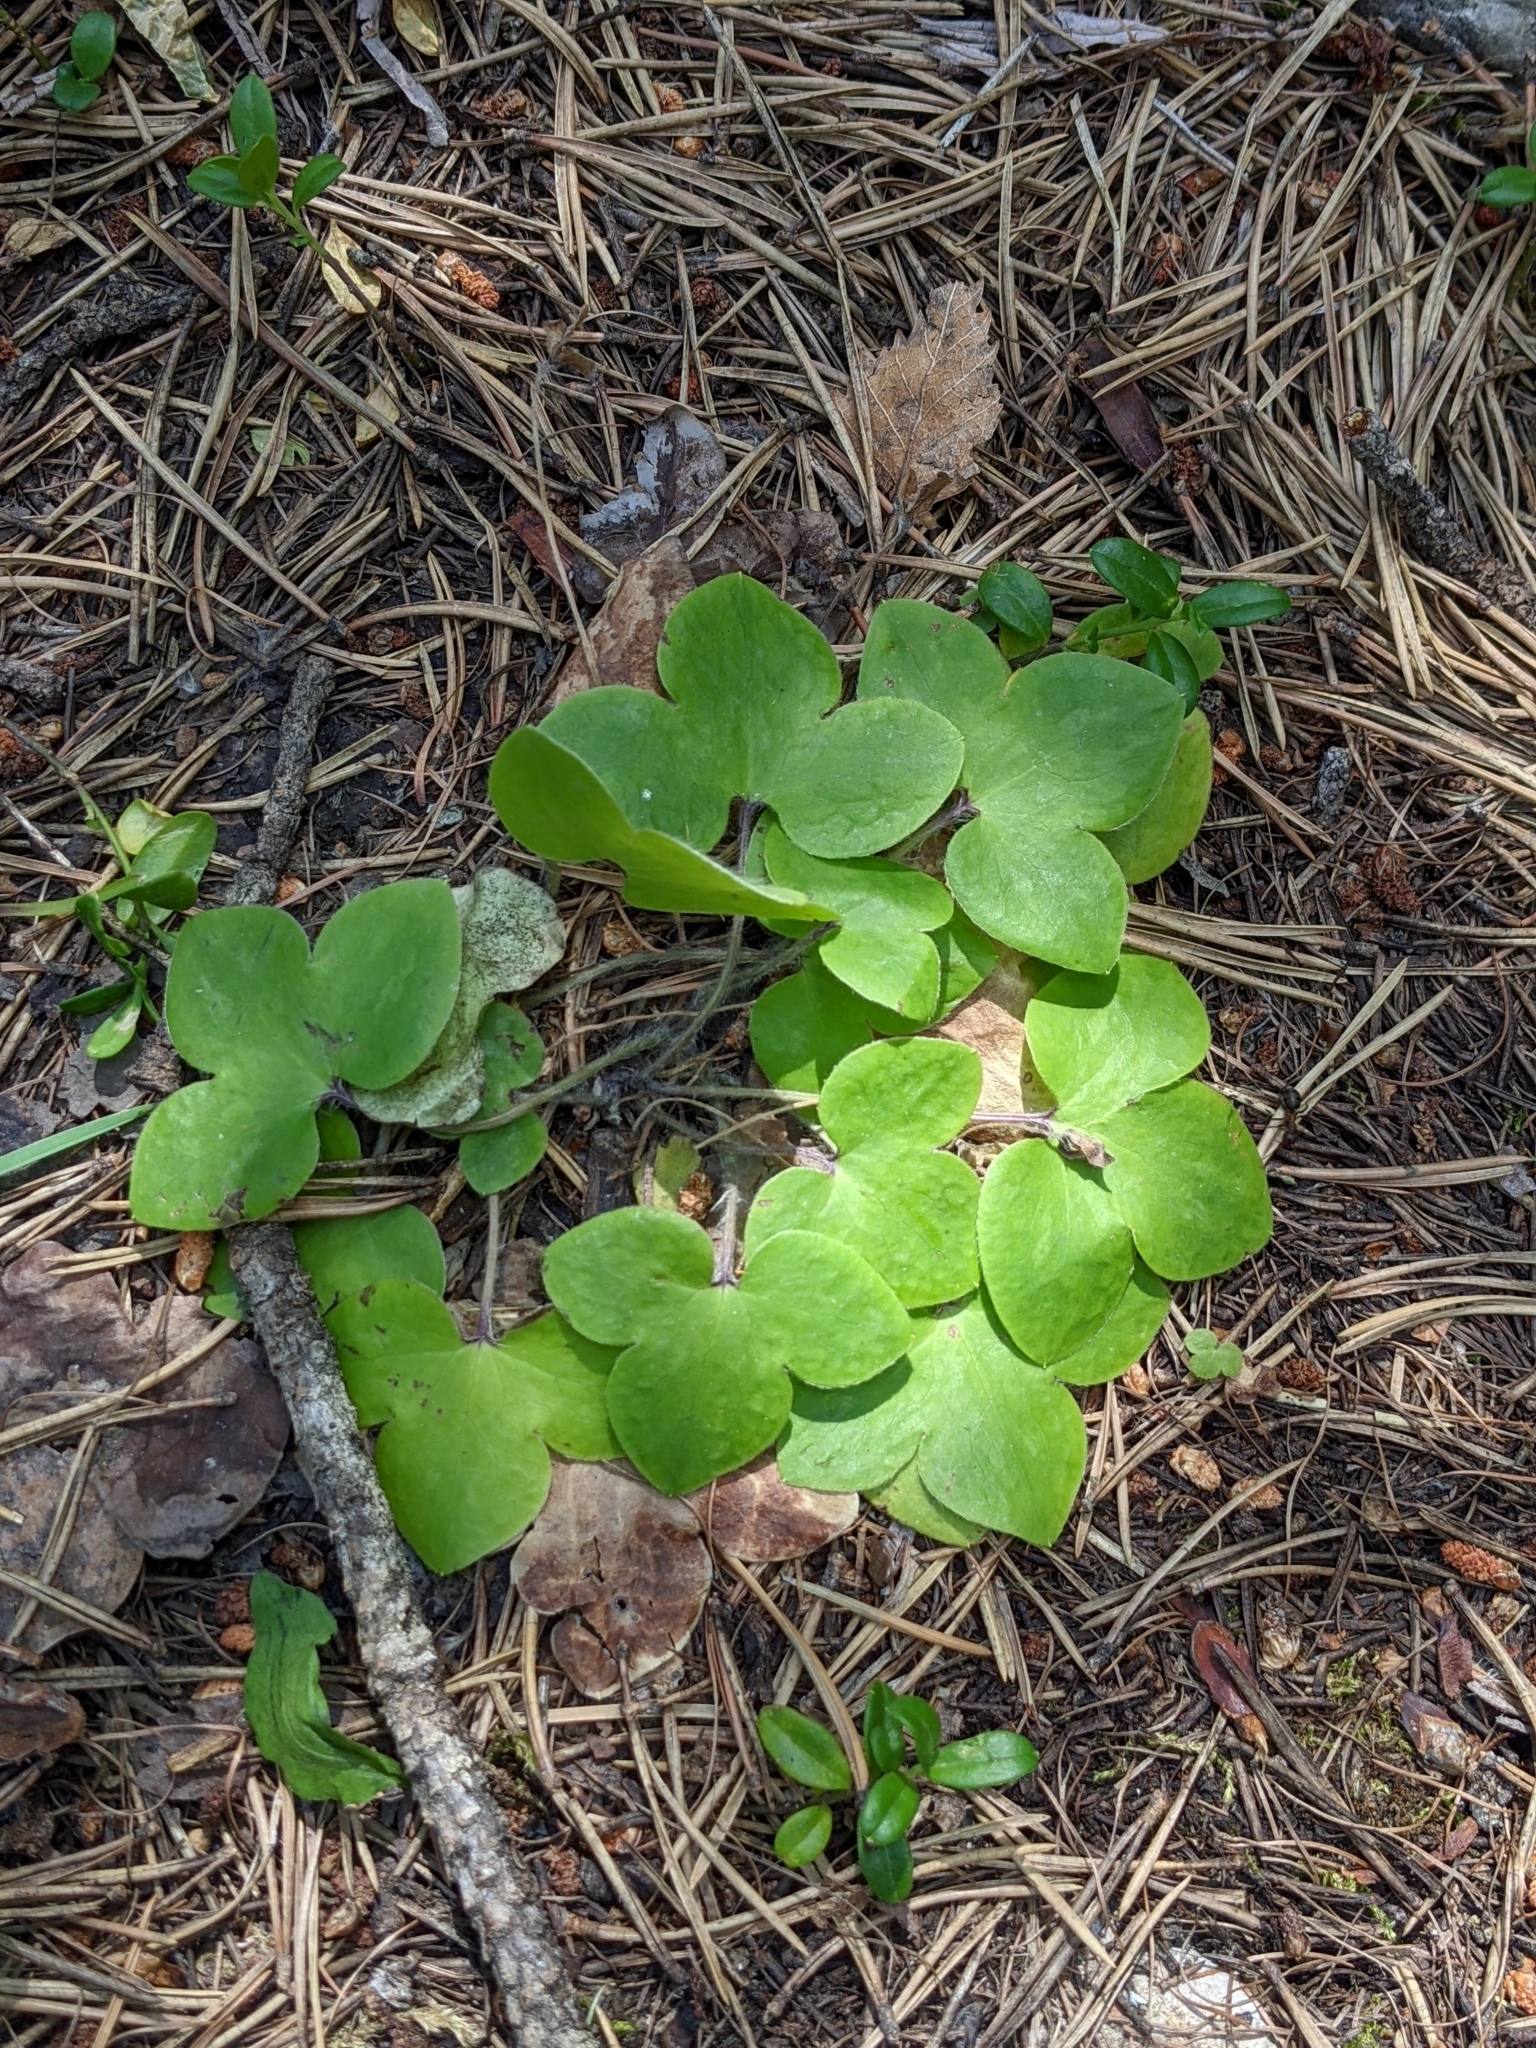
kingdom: Plantae
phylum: Tracheophyta
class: Magnoliopsida
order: Ranunculales
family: Ranunculaceae
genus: Hepatica
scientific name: Hepatica nobilis
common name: Liverleaf
